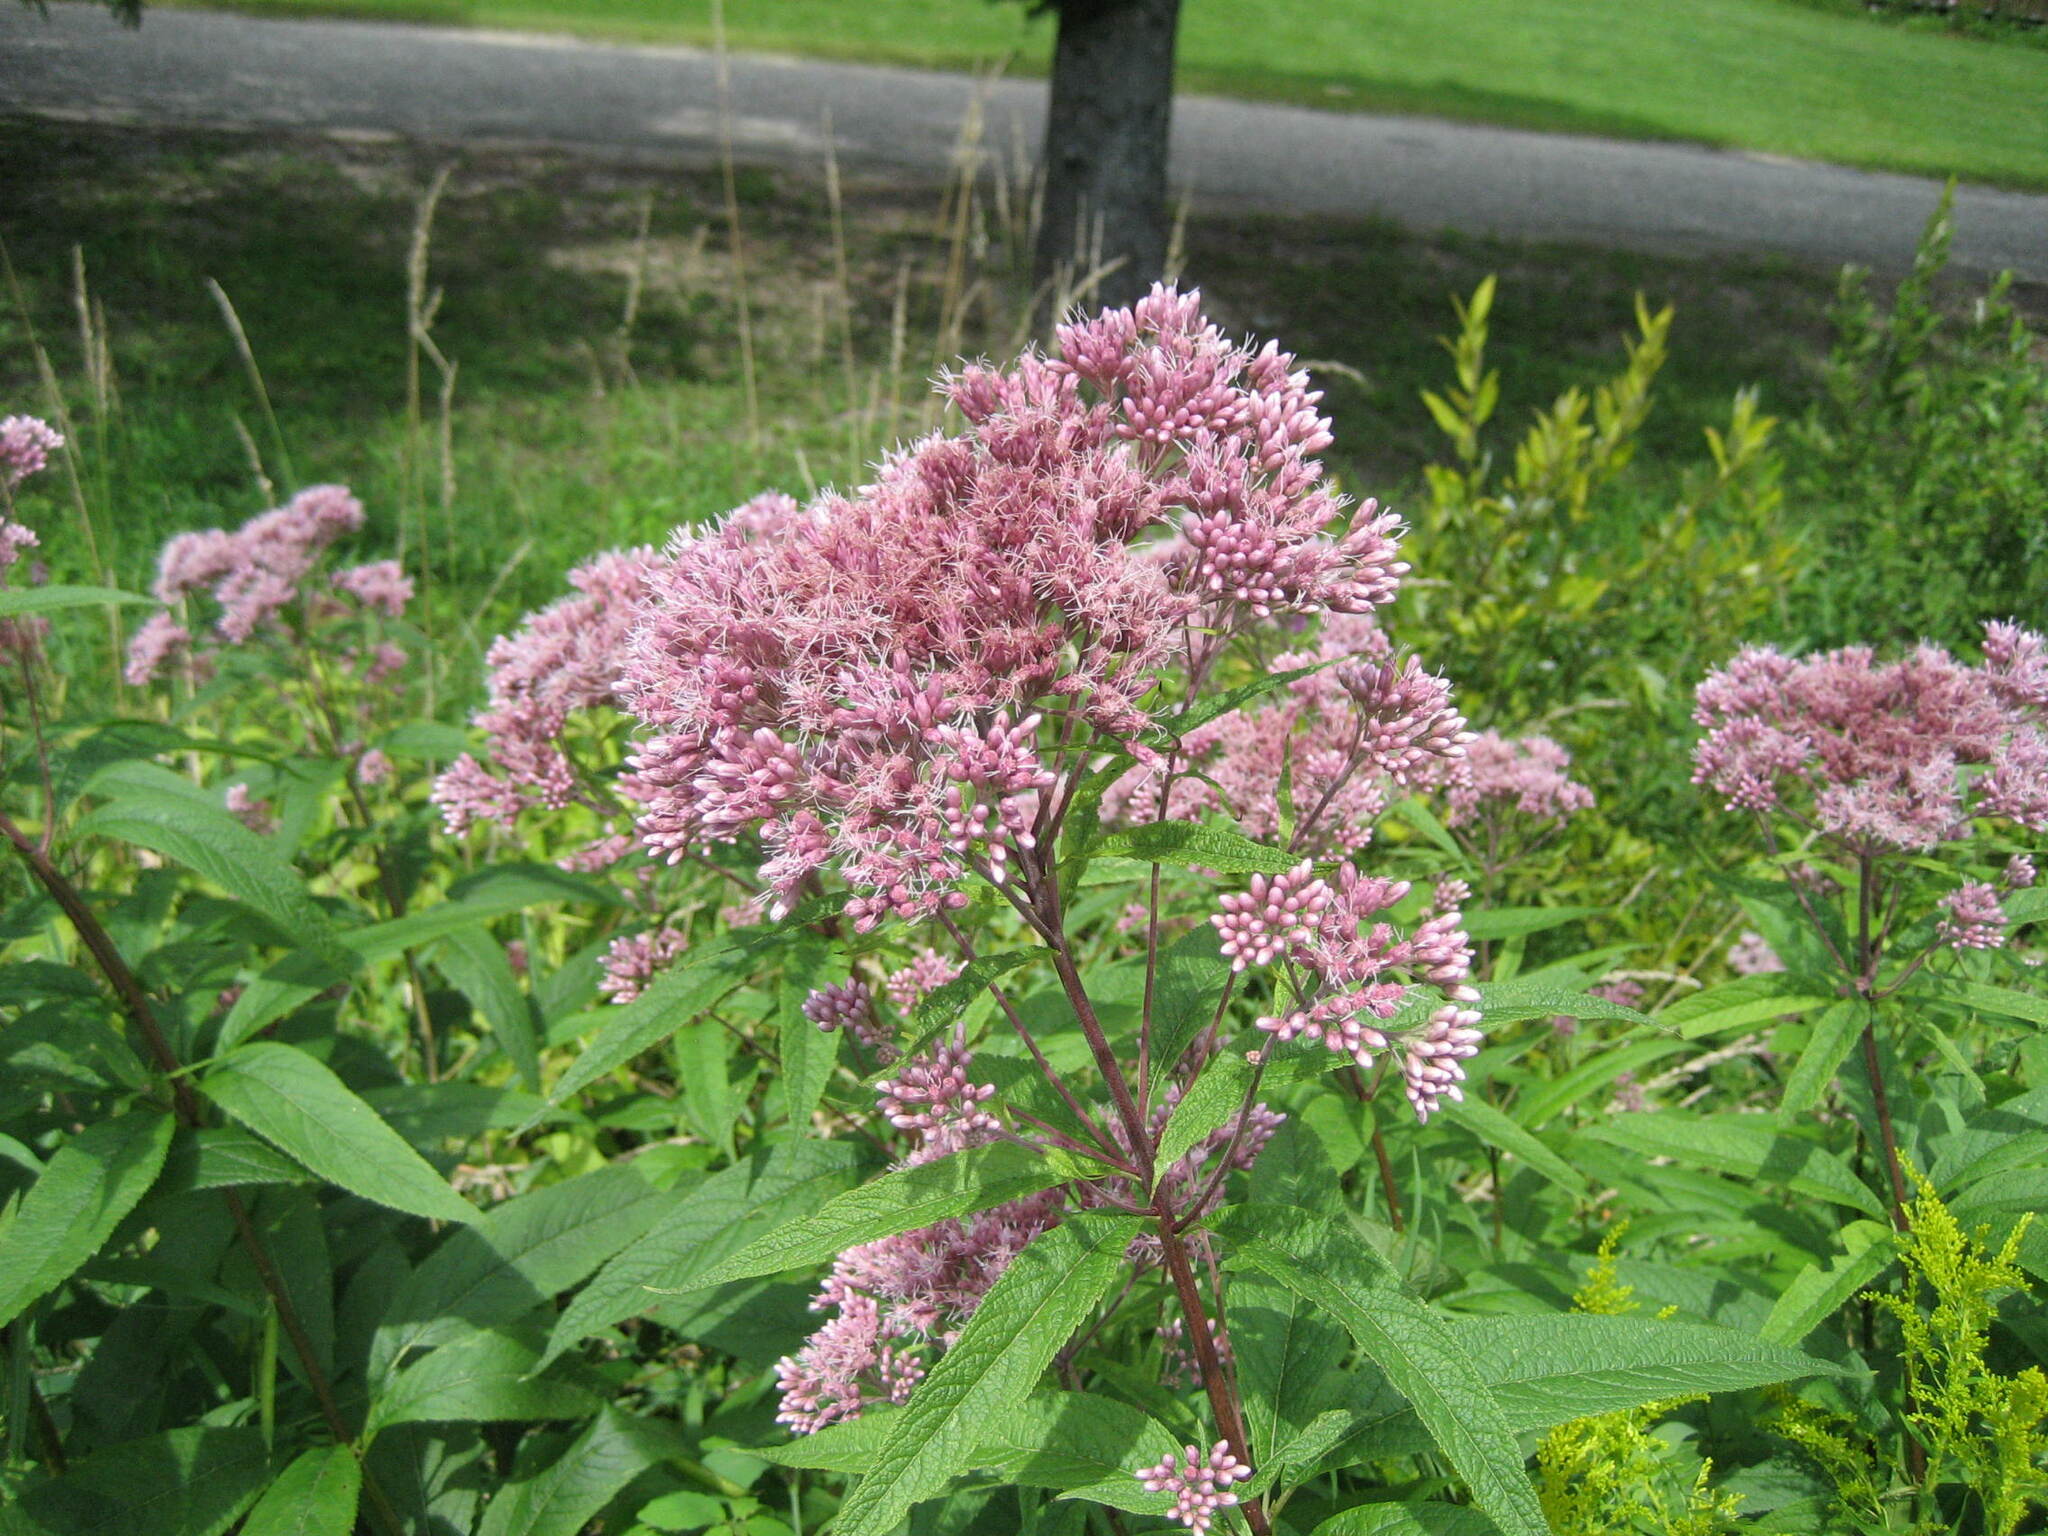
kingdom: Plantae
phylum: Tracheophyta
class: Magnoliopsida
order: Asterales
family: Asteraceae
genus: Eutrochium
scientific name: Eutrochium maculatum
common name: Spotted joe pye weed
